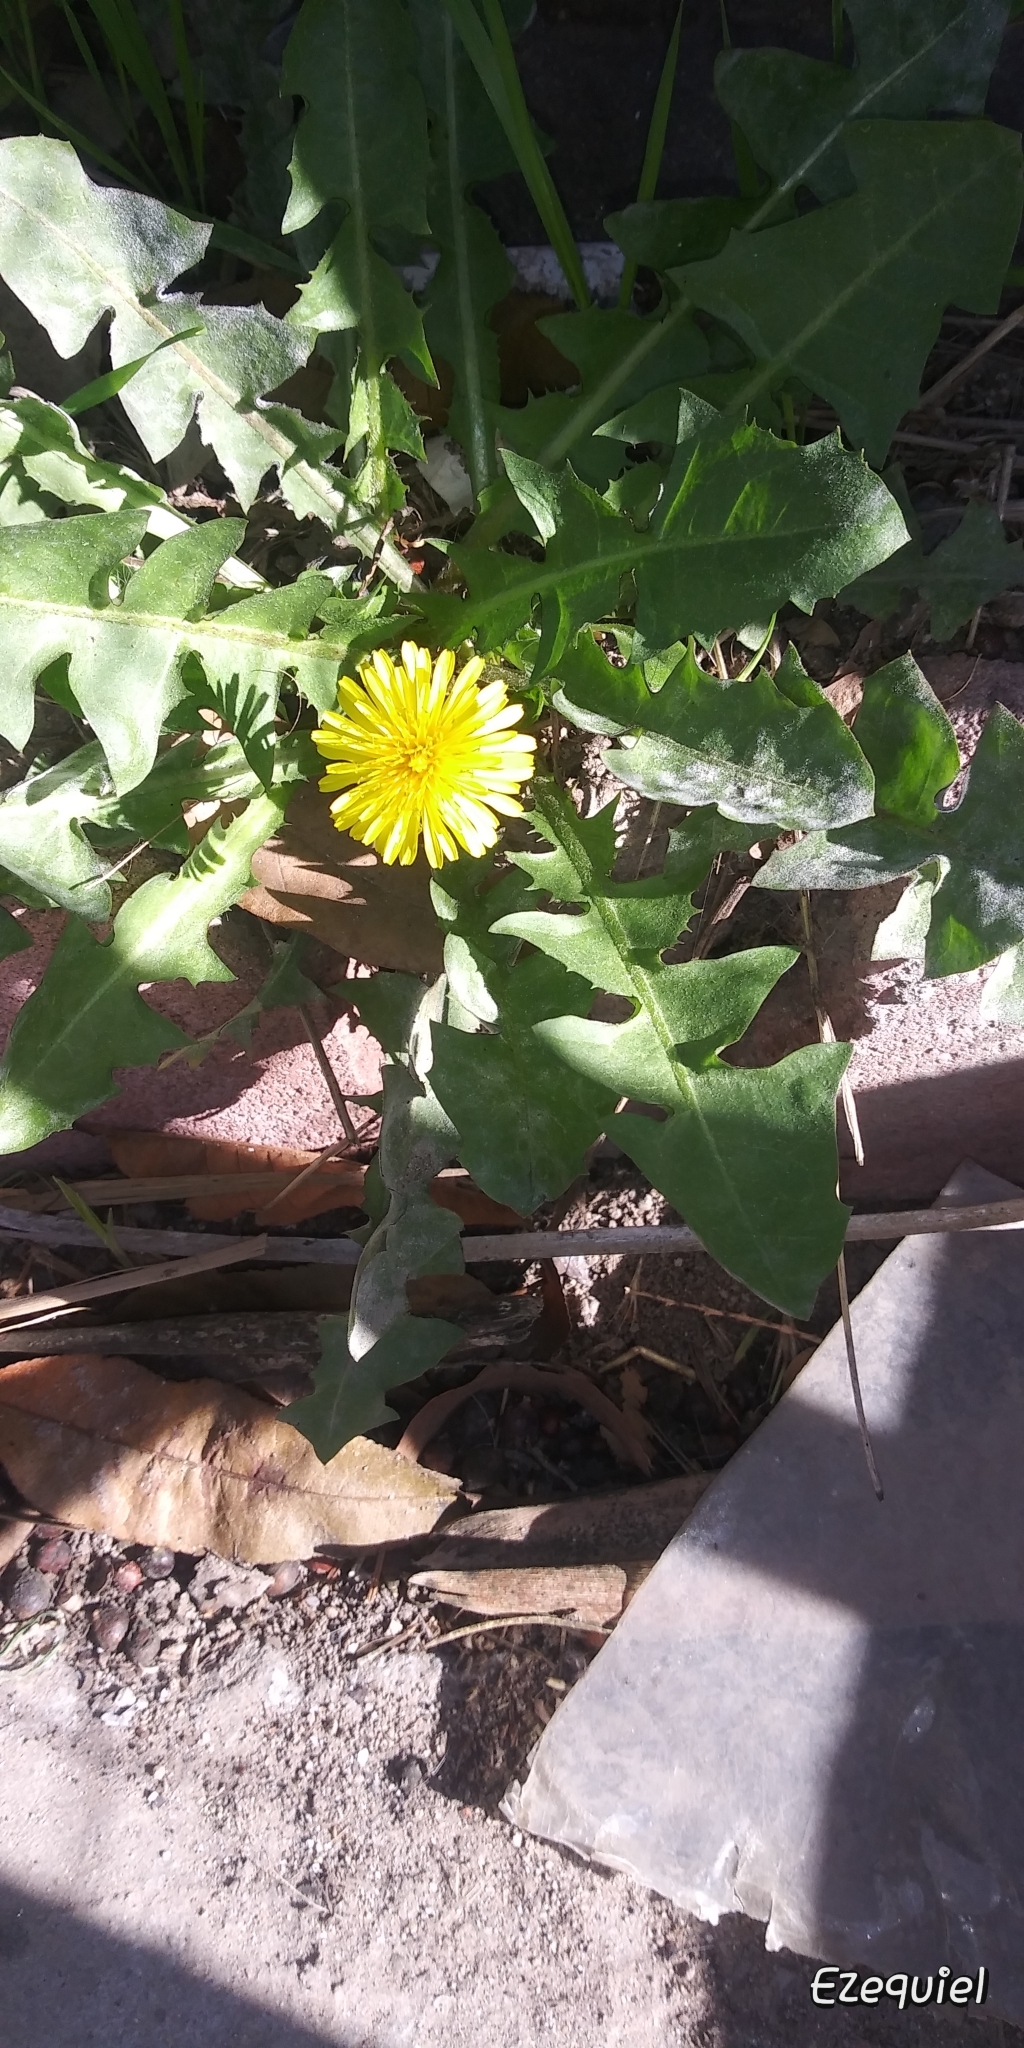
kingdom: Plantae
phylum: Tracheophyta
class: Magnoliopsida
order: Asterales
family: Asteraceae
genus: Taraxacum
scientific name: Taraxacum officinale
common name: Common dandelion
